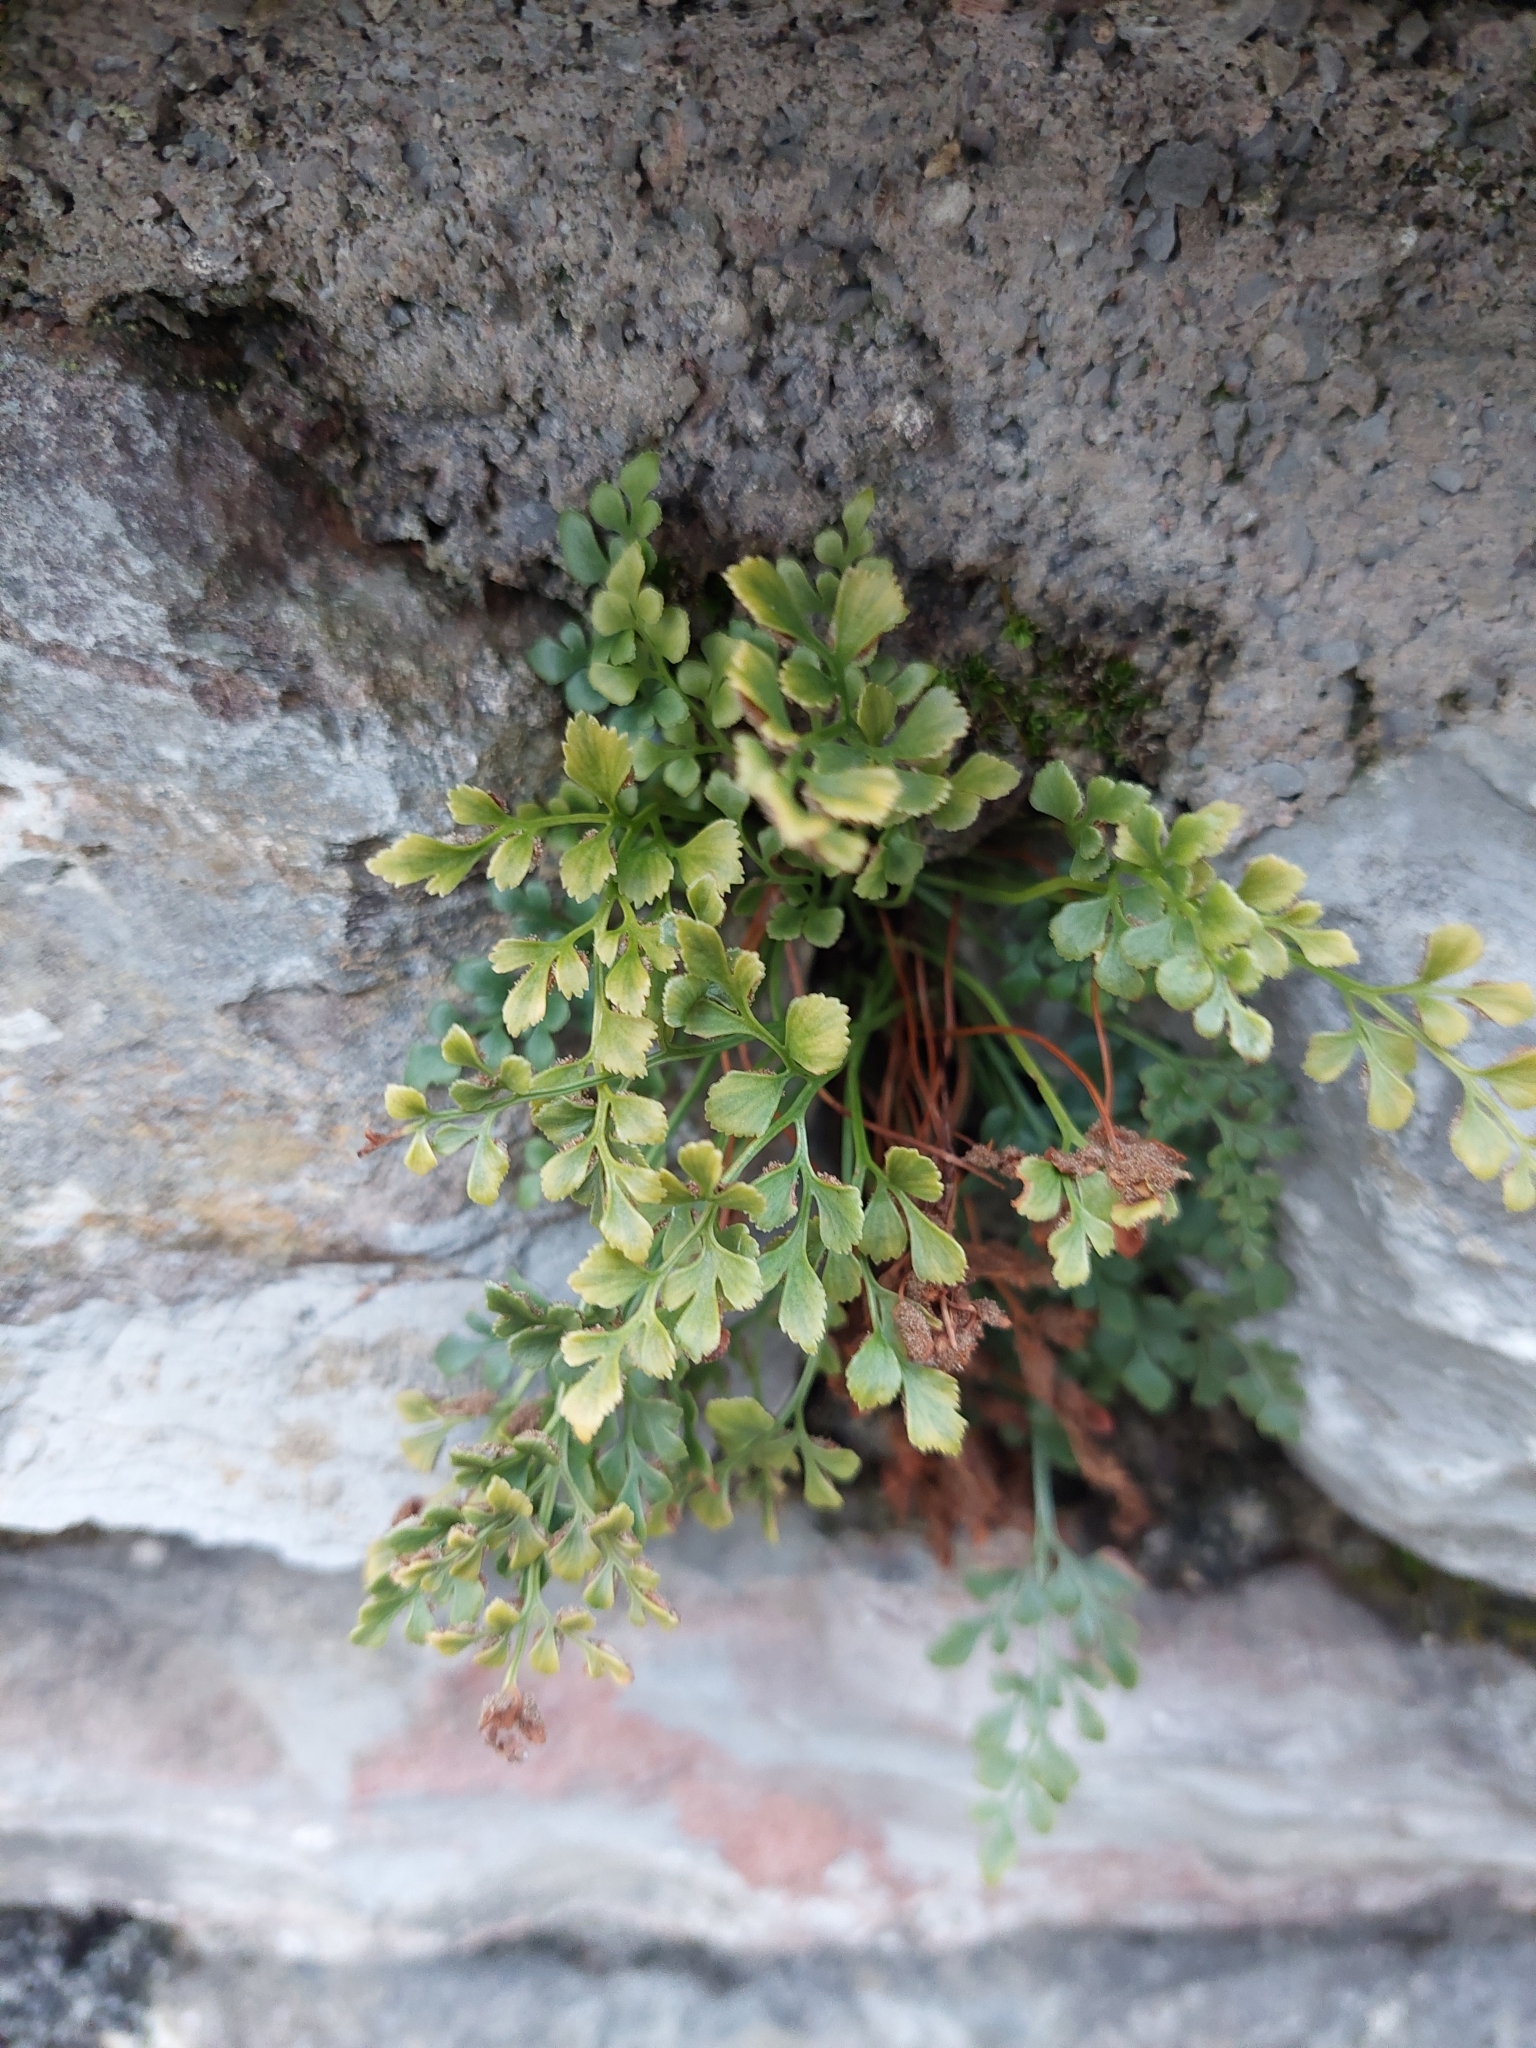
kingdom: Plantae
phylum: Tracheophyta
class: Polypodiopsida
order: Polypodiales
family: Aspleniaceae
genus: Asplenium
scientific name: Asplenium ruta-muraria
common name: Wall-rue
